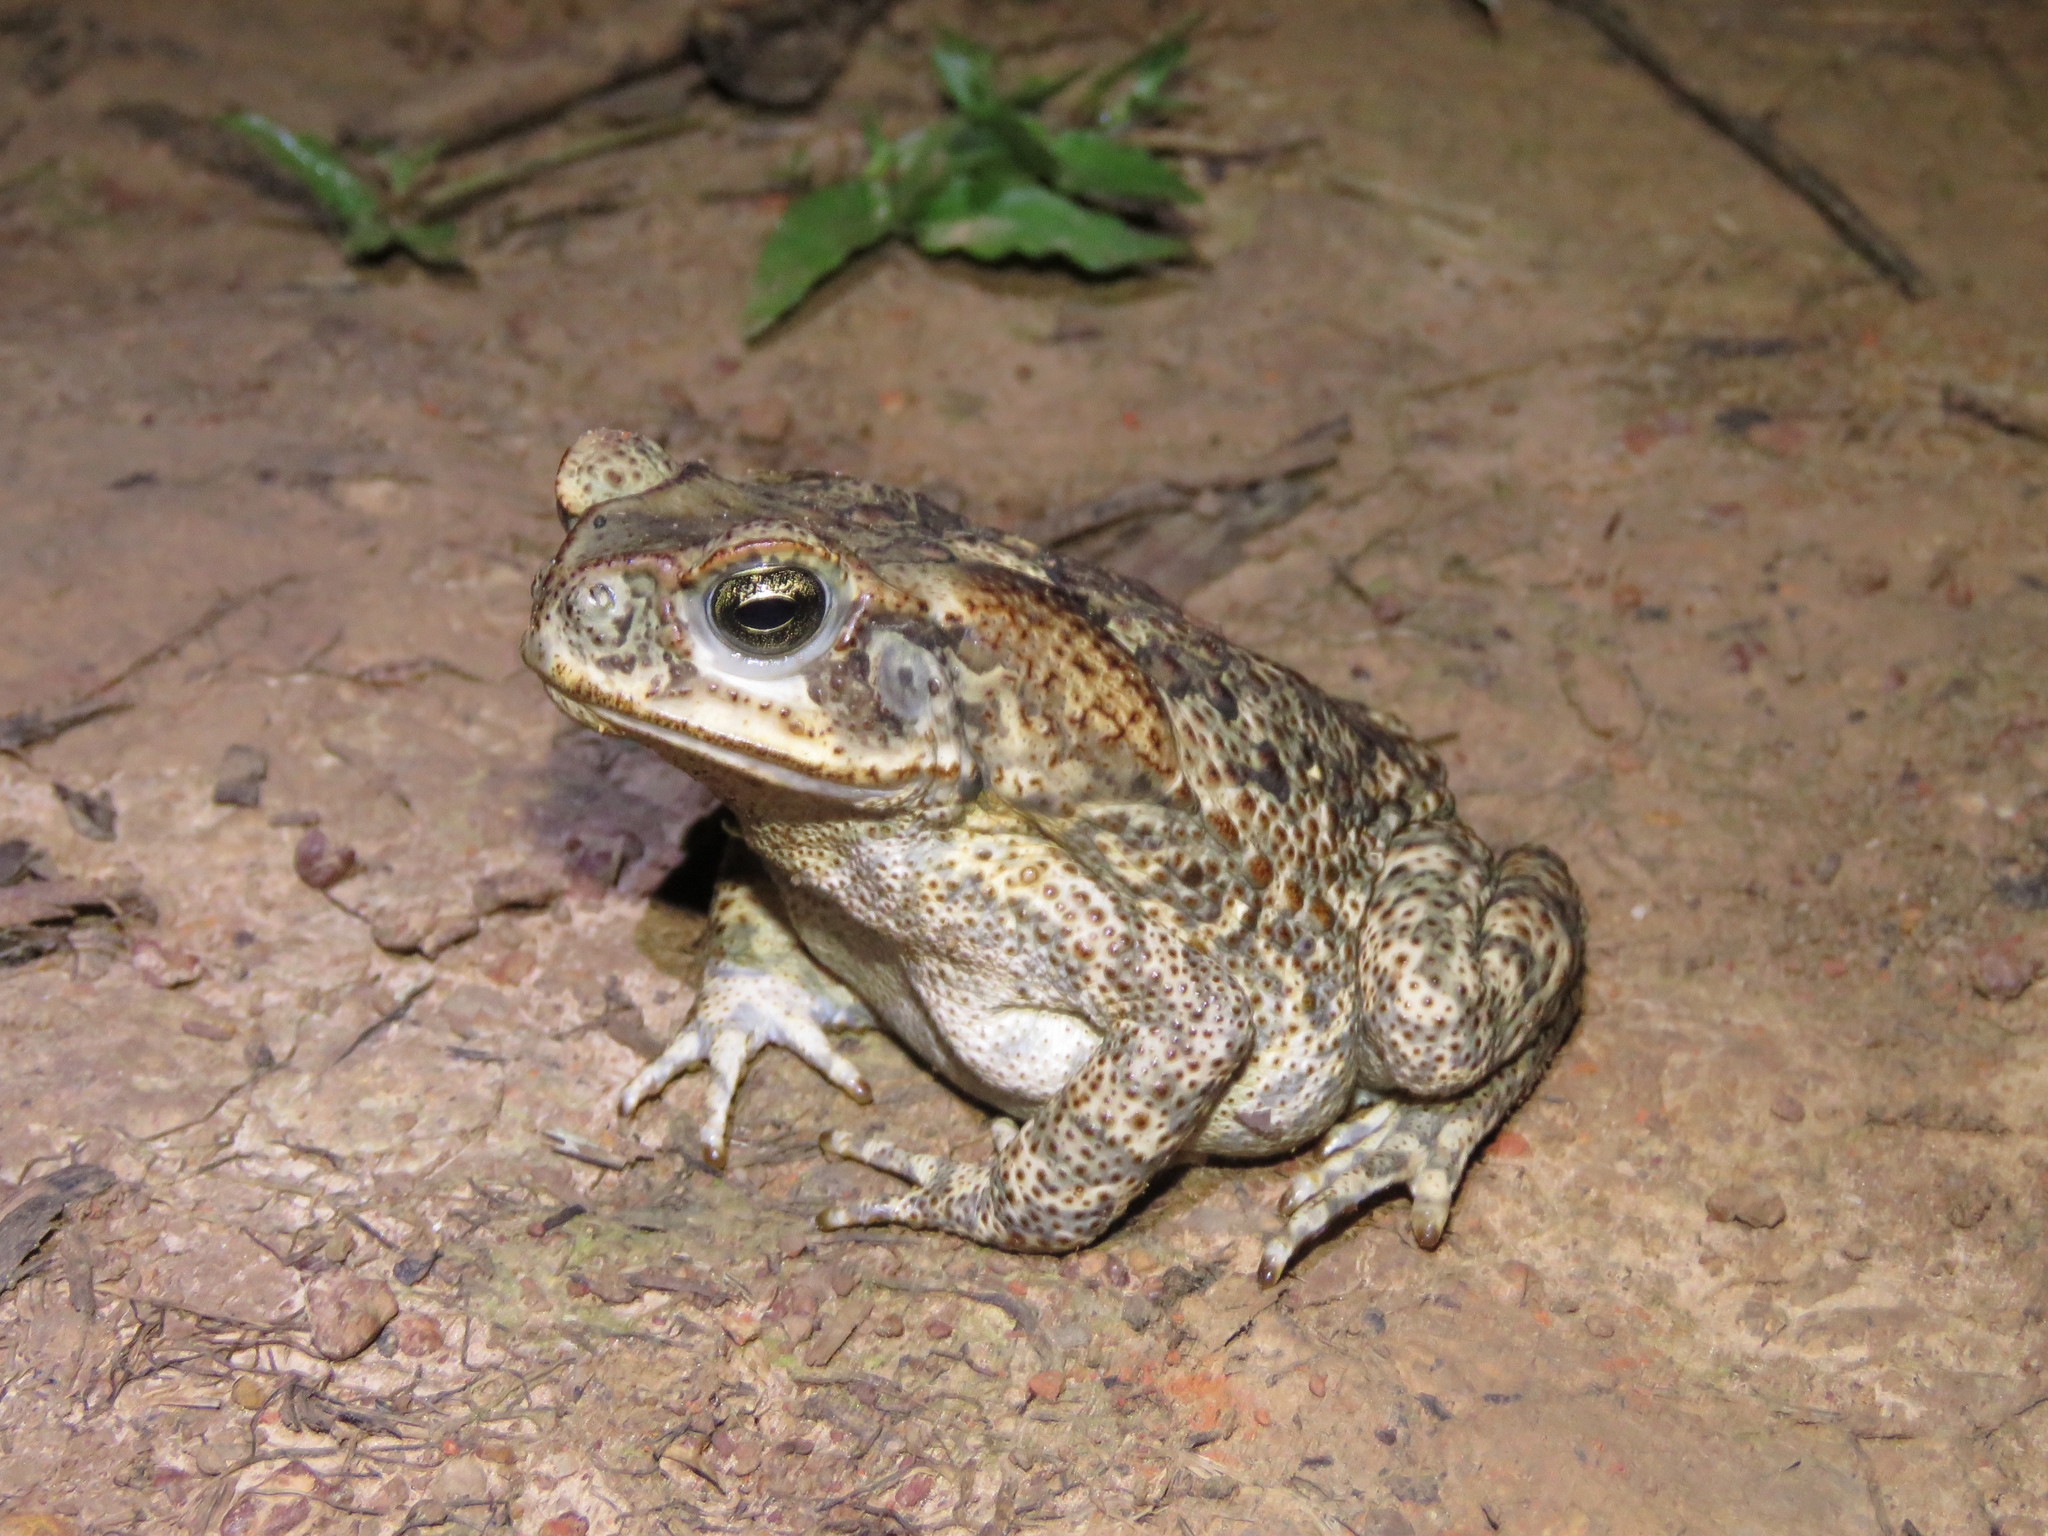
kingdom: Animalia
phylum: Chordata
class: Amphibia
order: Anura
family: Bufonidae
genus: Rhinella
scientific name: Rhinella diptycha
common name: Cope's toad
